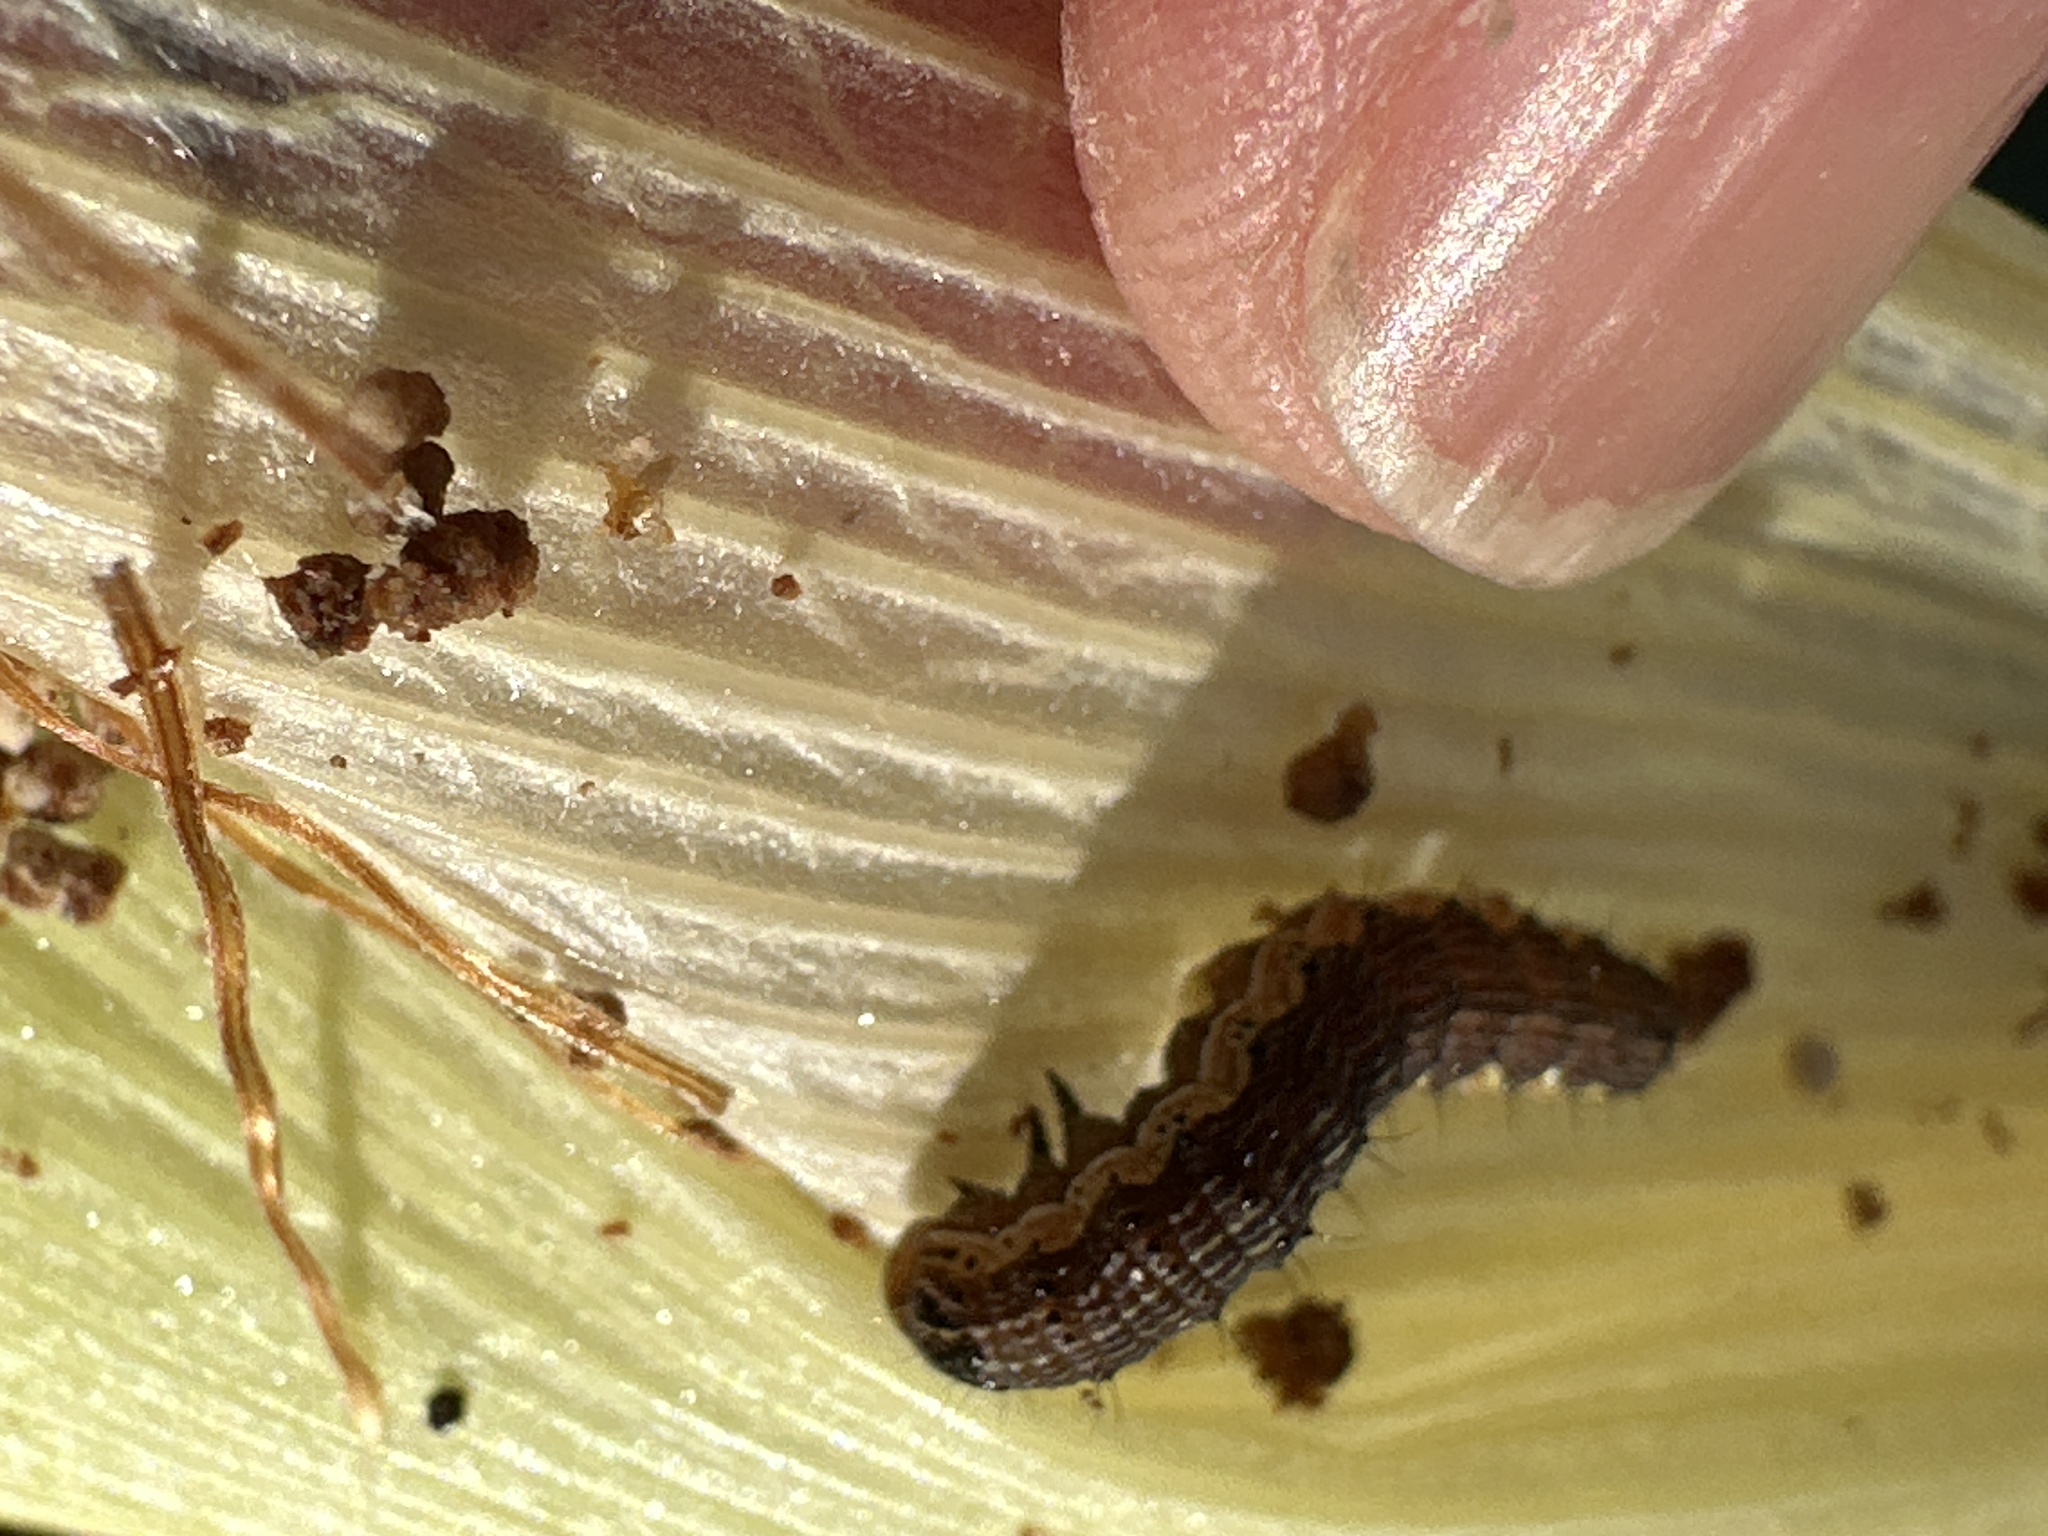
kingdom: Animalia
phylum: Arthropoda
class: Insecta
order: Lepidoptera
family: Noctuidae
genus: Helicoverpa
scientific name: Helicoverpa zea
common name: Bollworm
